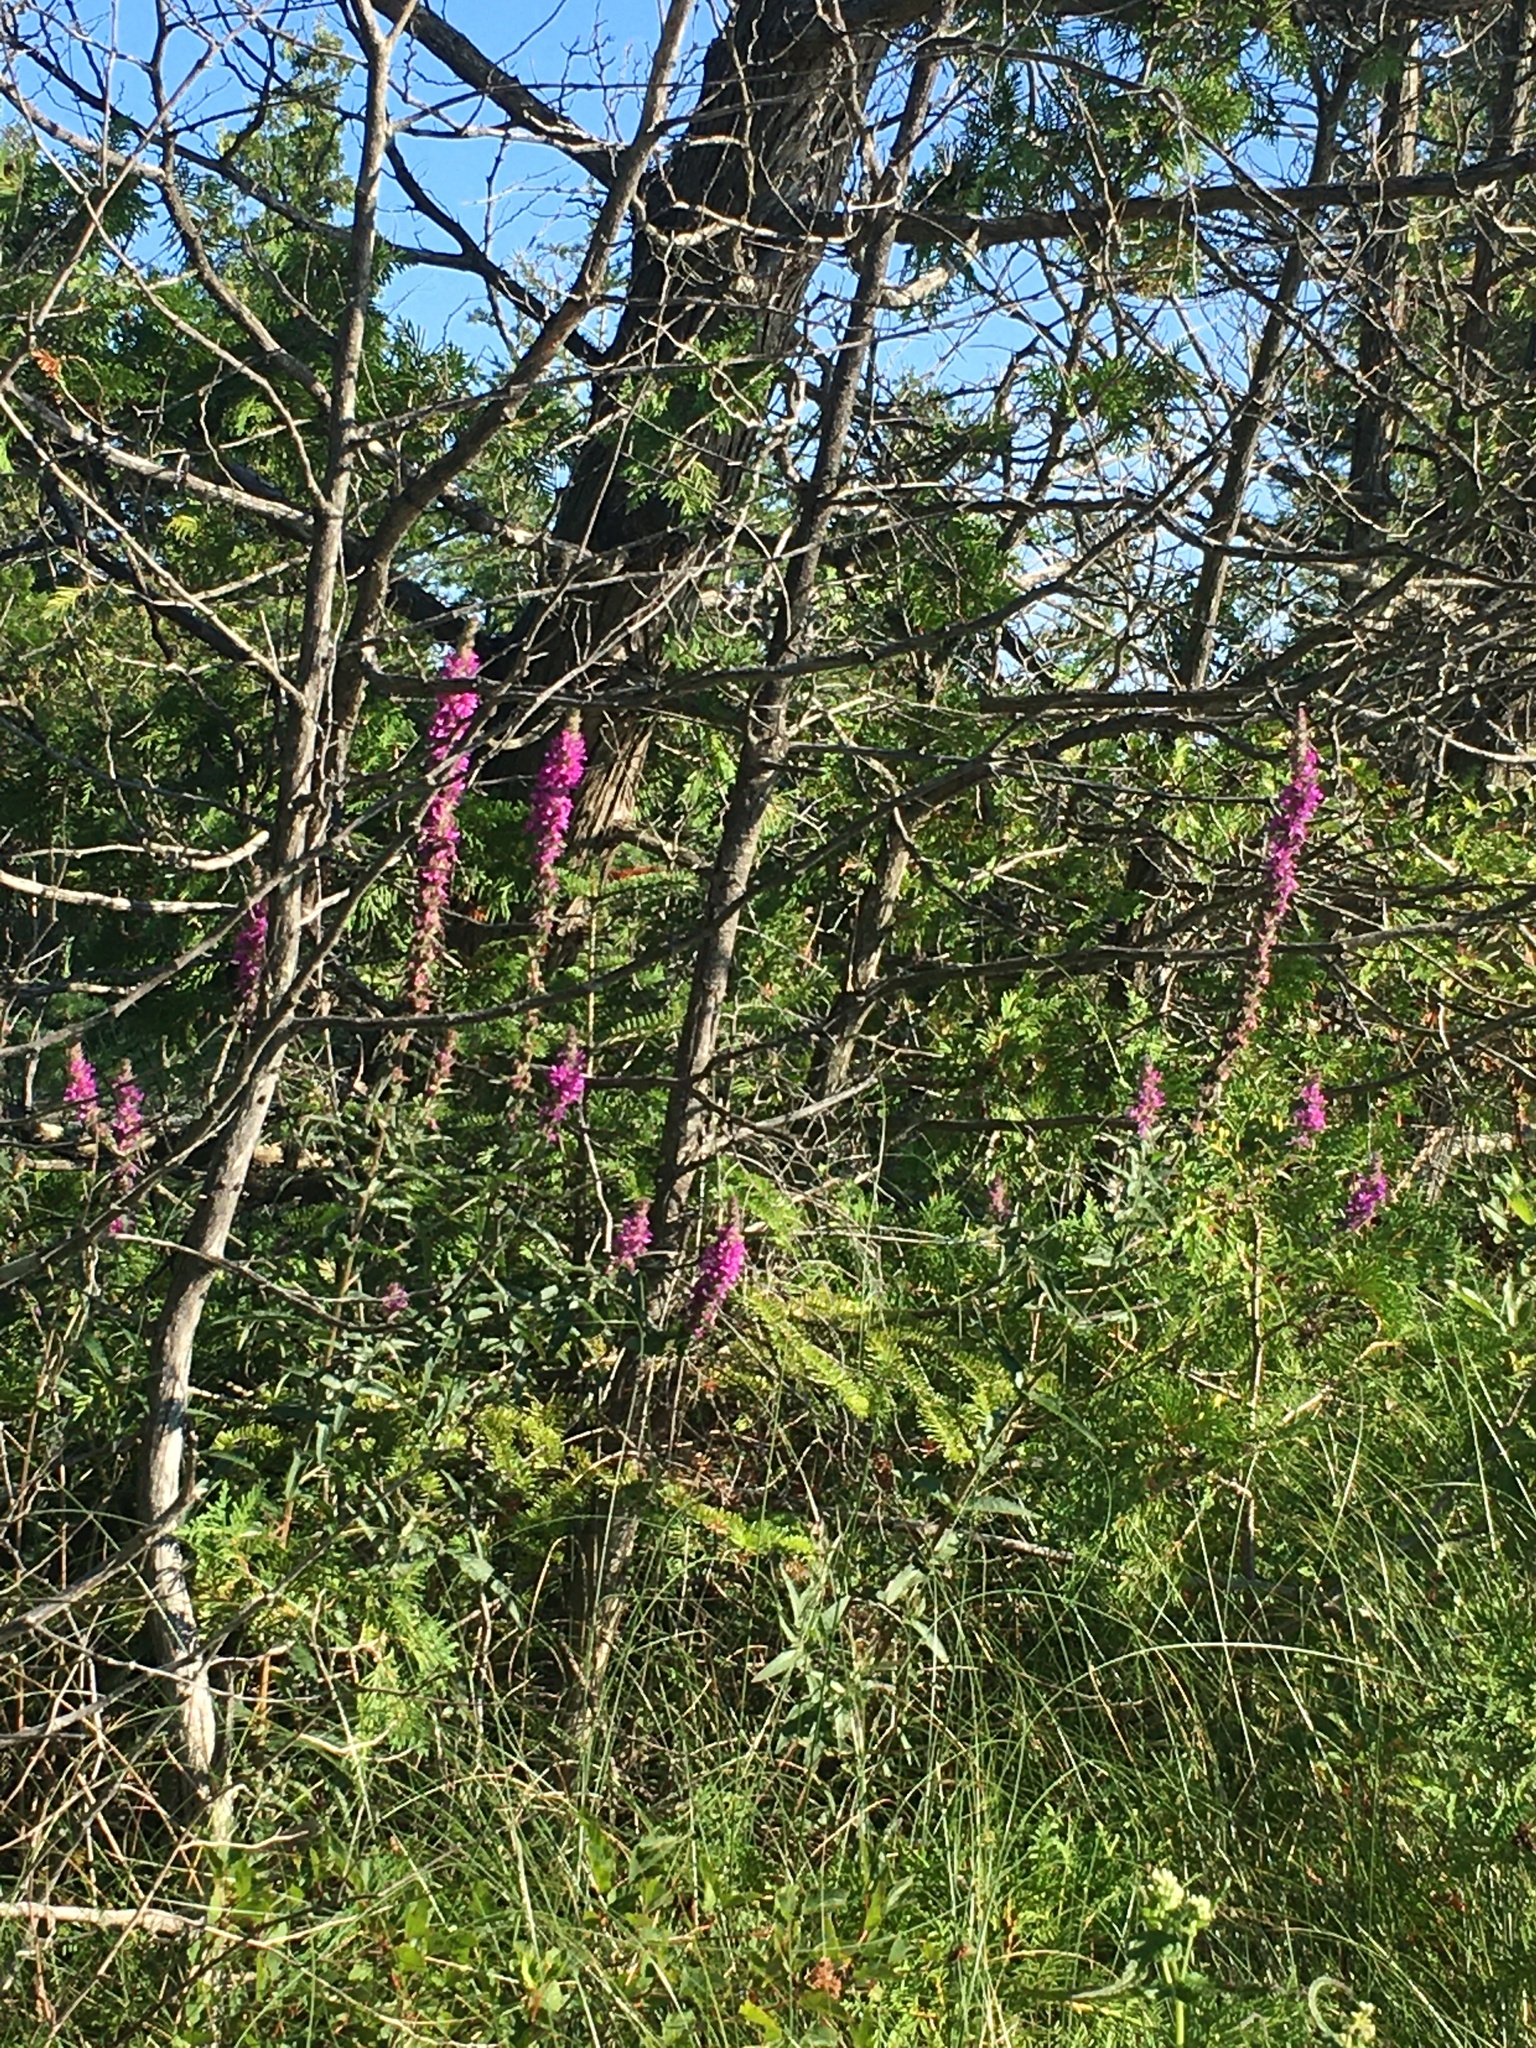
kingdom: Plantae
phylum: Tracheophyta
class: Magnoliopsida
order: Myrtales
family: Lythraceae
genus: Lythrum
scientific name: Lythrum salicaria
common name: Purple loosestrife
